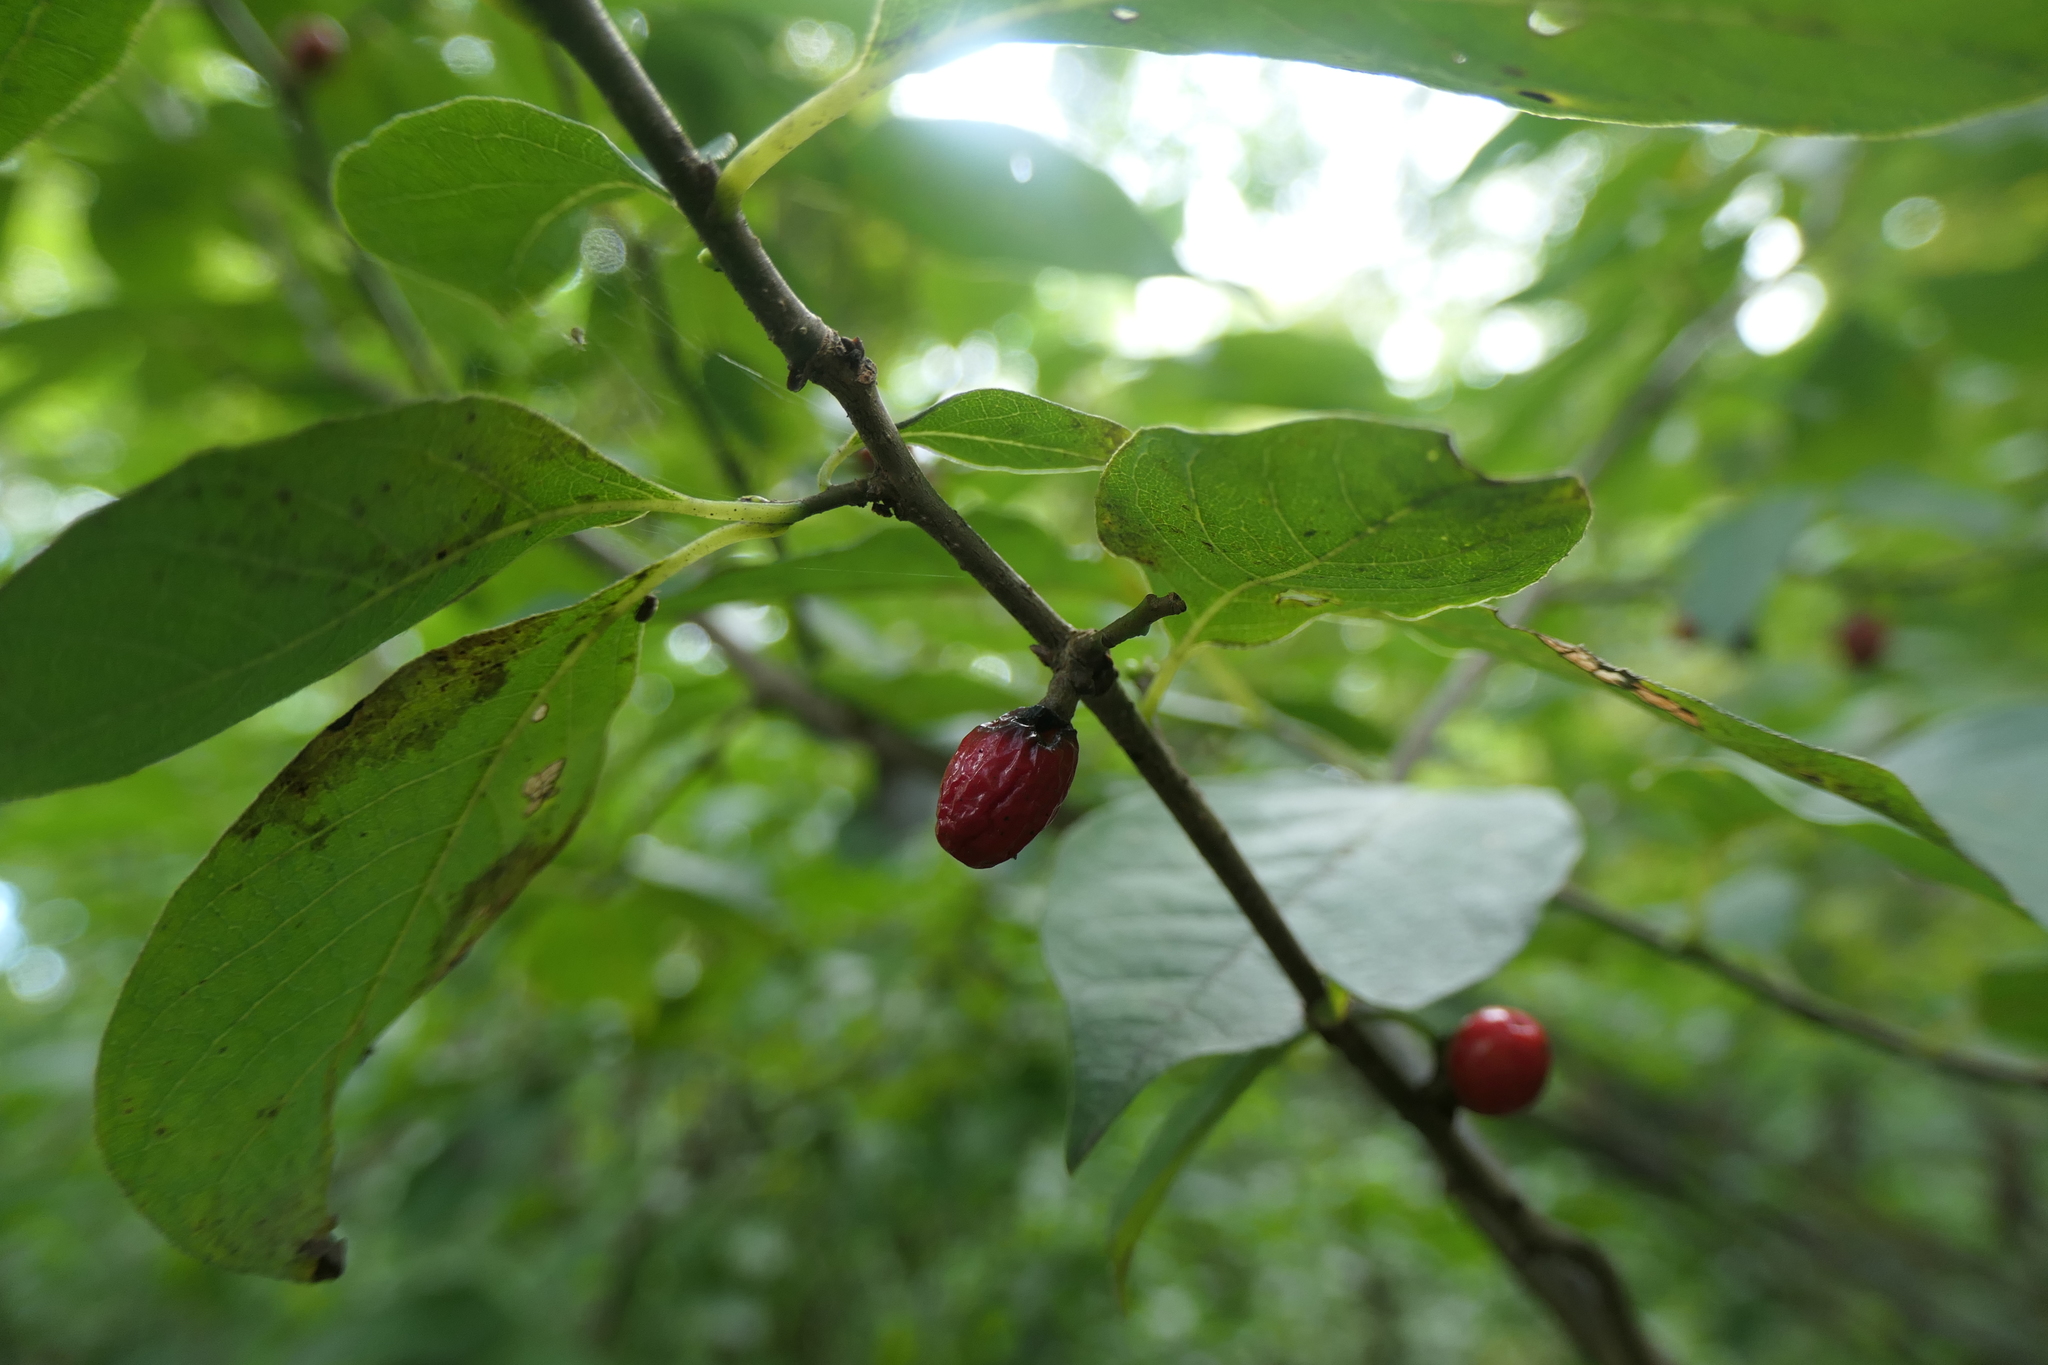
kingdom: Plantae
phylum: Tracheophyta
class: Magnoliopsida
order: Laurales
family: Lauraceae
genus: Lindera
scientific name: Lindera benzoin
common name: Spicebush
